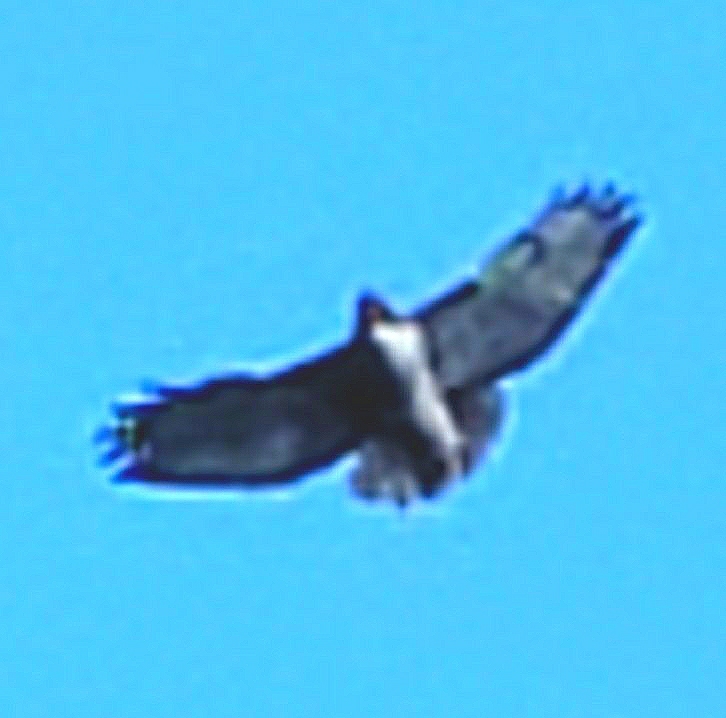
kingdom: Animalia
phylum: Chordata
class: Aves
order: Accipitriformes
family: Accipitridae
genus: Buteo
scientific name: Buteo jamaicensis
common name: Red-tailed hawk
